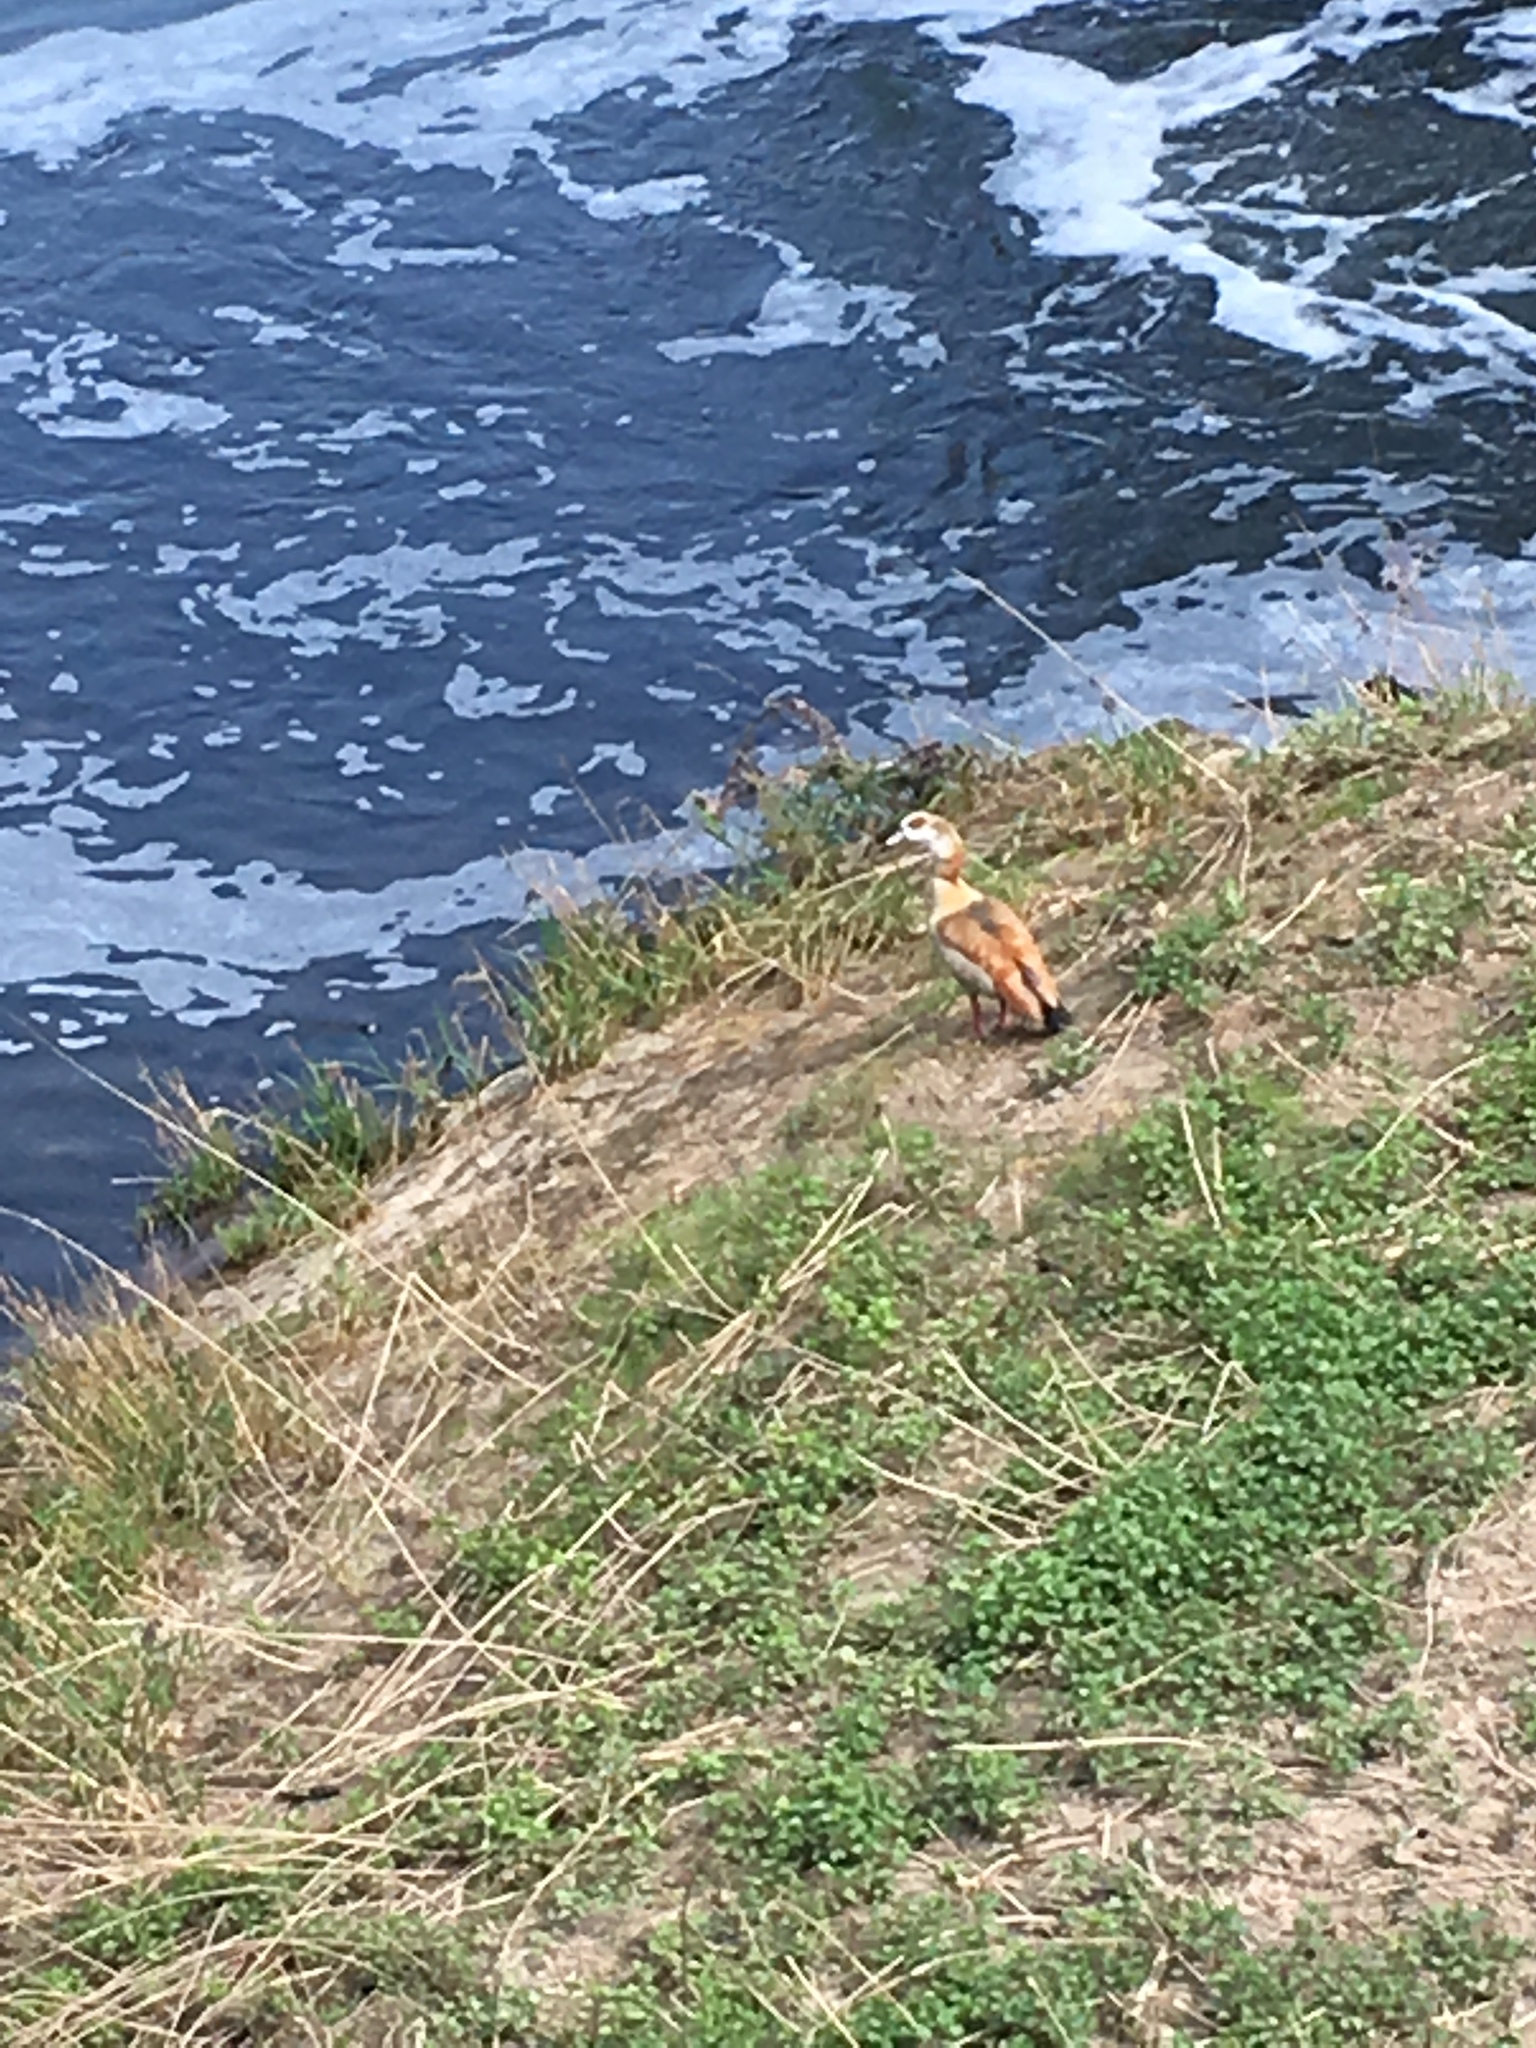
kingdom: Animalia
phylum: Chordata
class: Aves
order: Anseriformes
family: Anatidae
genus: Alopochen
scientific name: Alopochen aegyptiaca
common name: Egyptian goose
